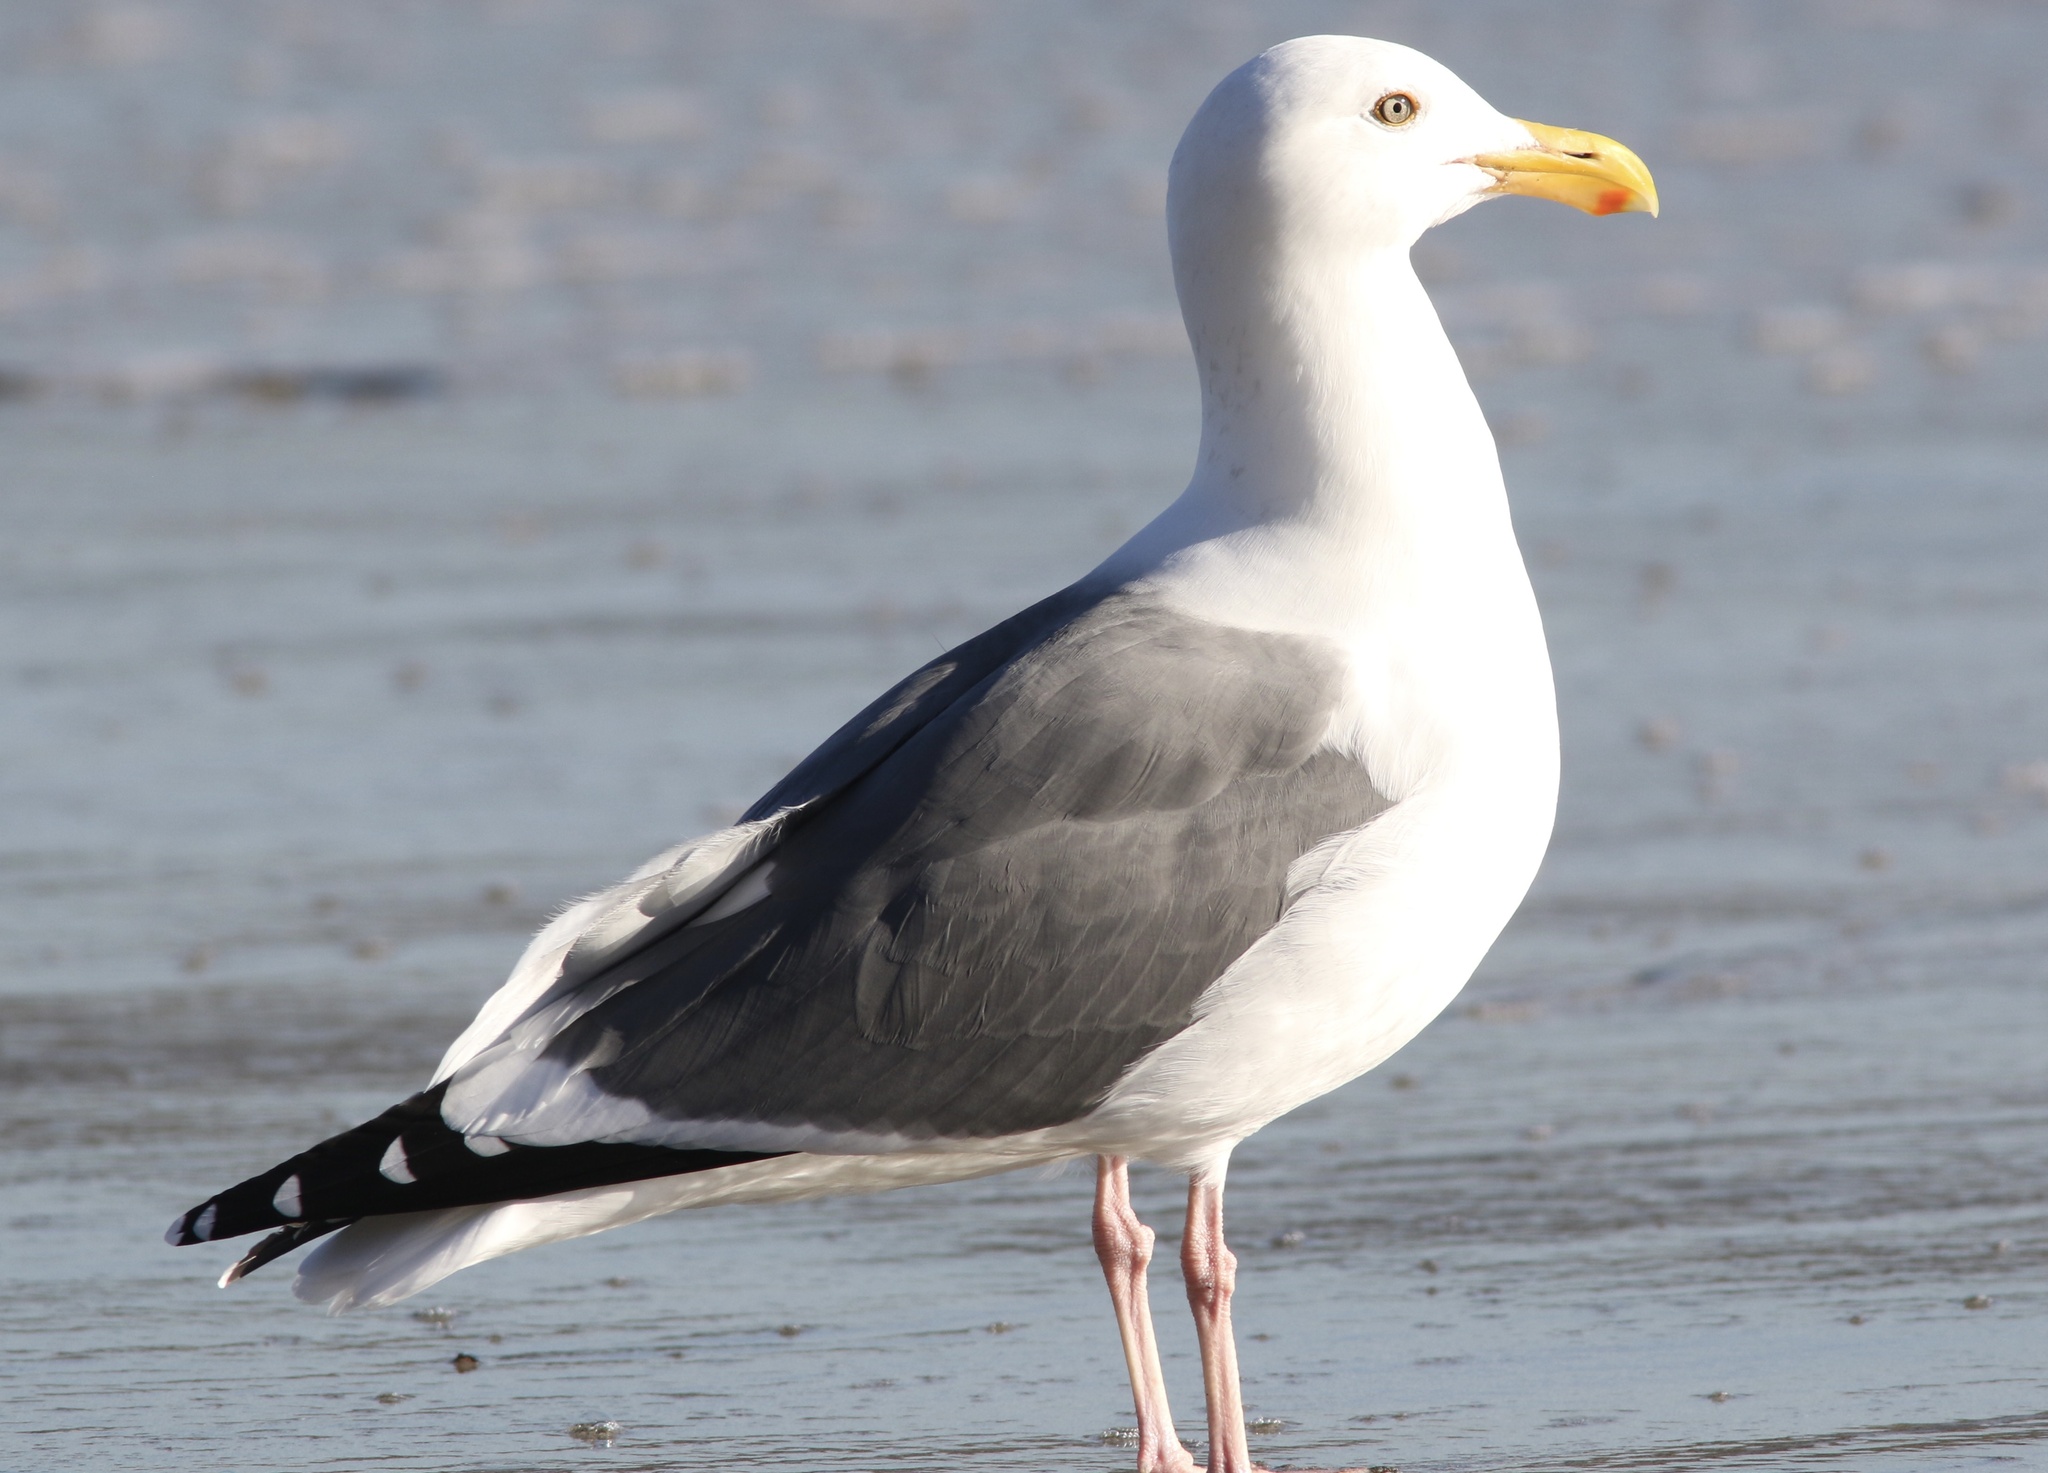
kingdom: Animalia
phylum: Chordata
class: Aves
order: Charadriiformes
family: Laridae
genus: Larus
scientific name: Larus occidentalis
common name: Western gull
